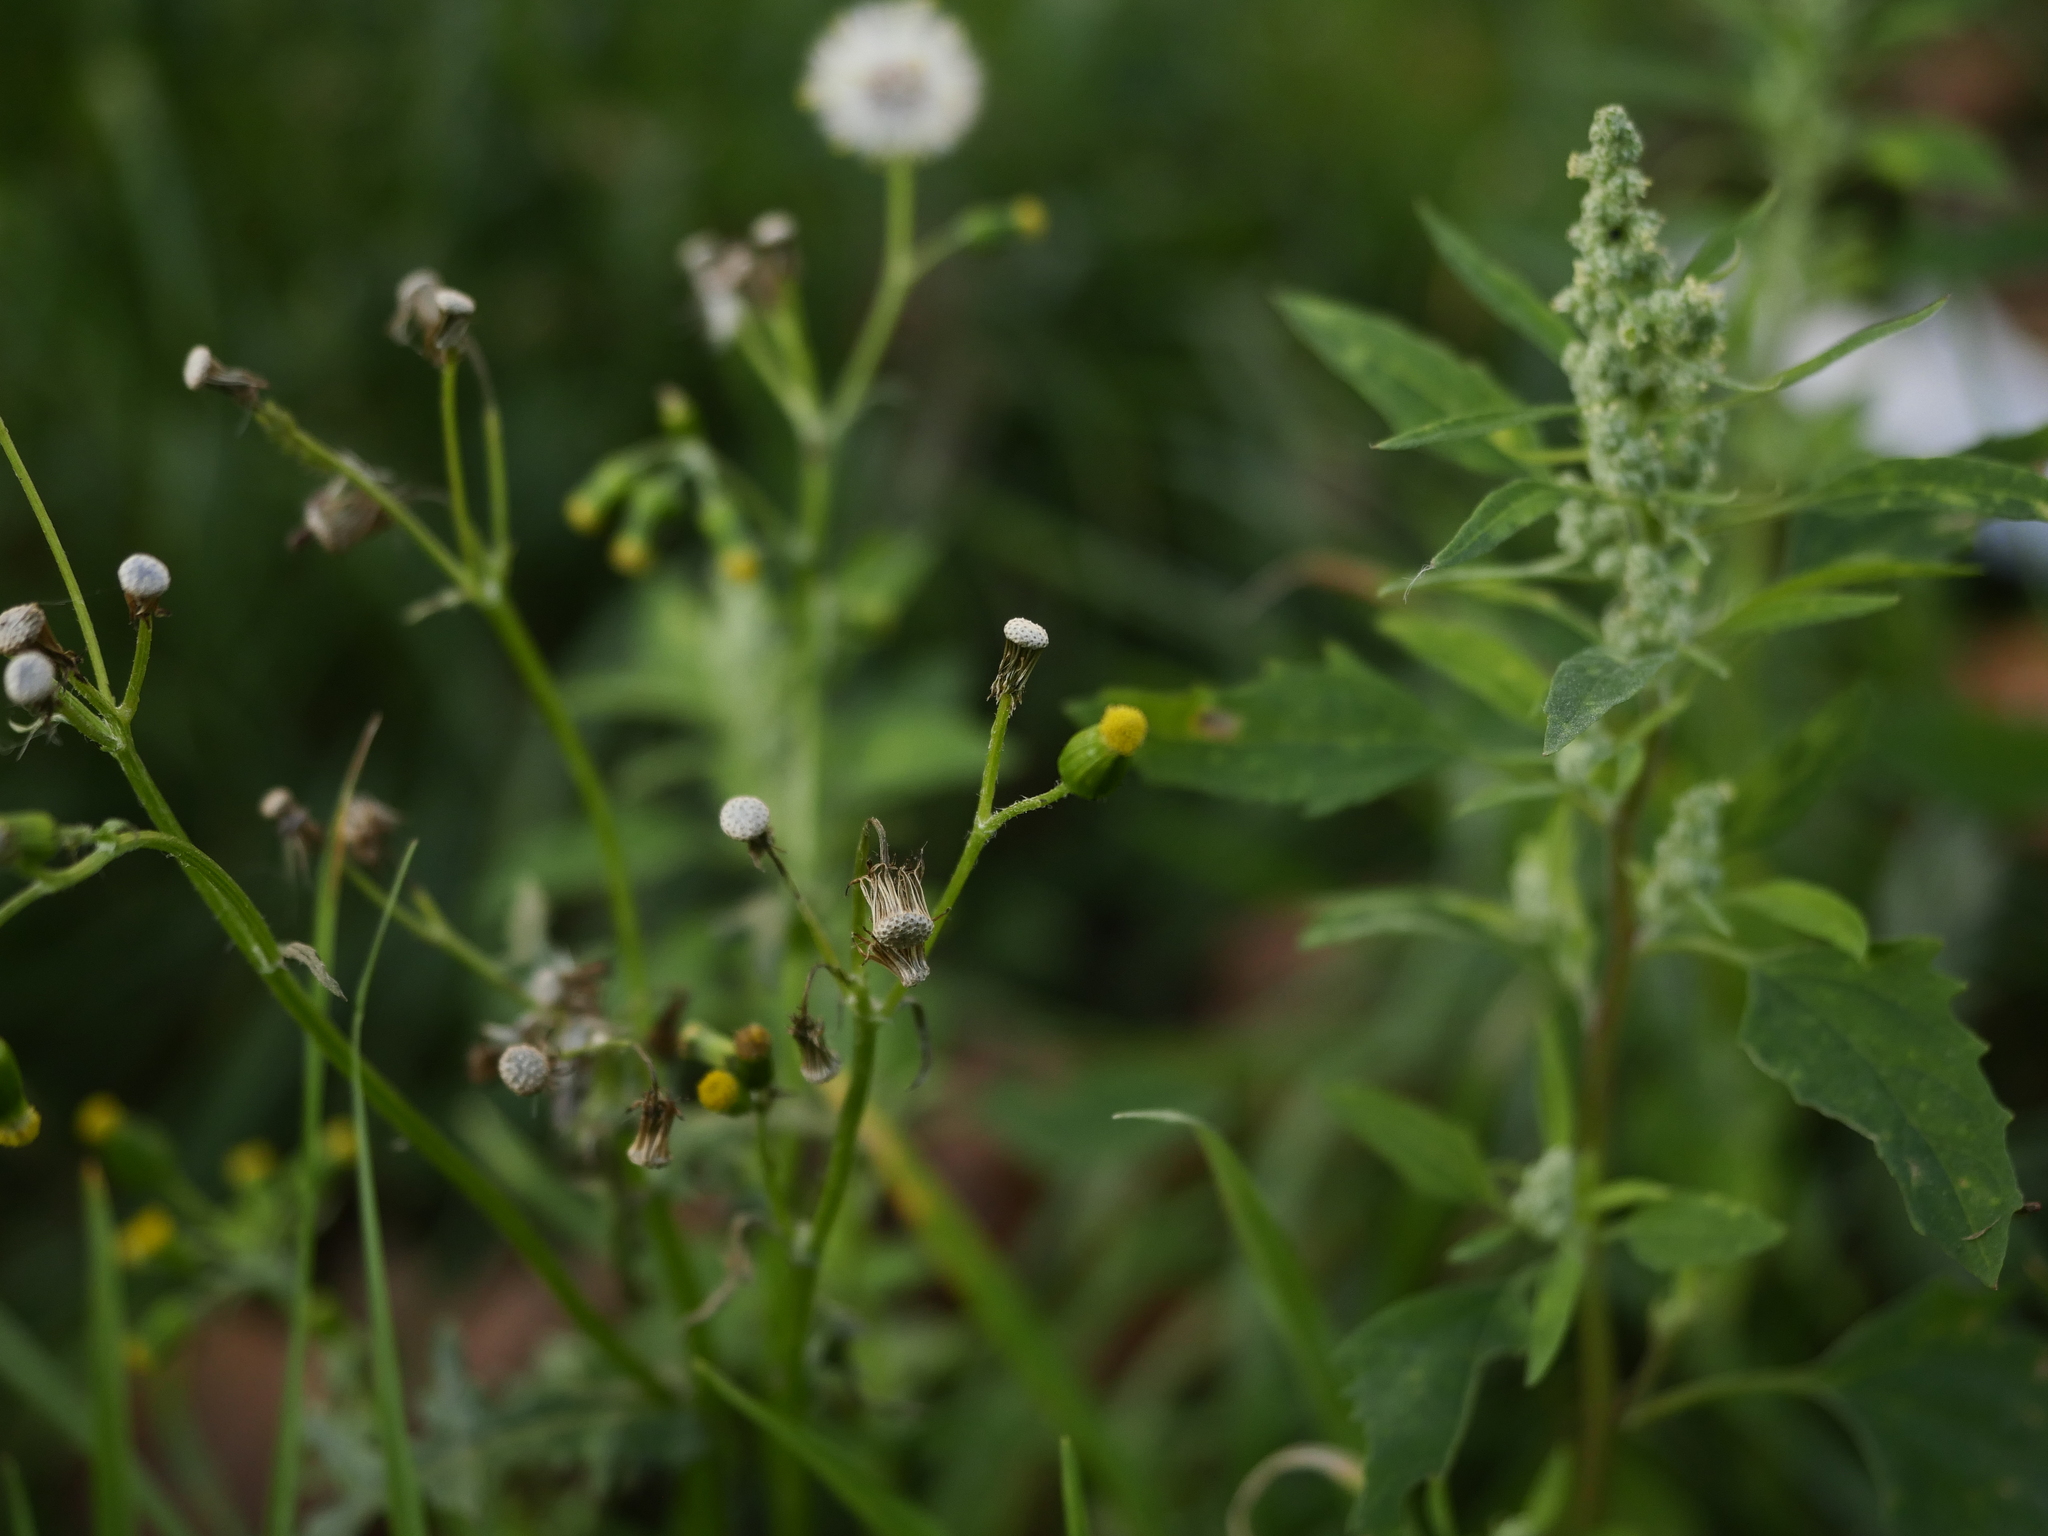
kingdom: Plantae
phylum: Tracheophyta
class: Magnoliopsida
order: Asterales
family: Asteraceae
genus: Senecio
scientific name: Senecio vulgaris
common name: Old-man-in-the-spring
